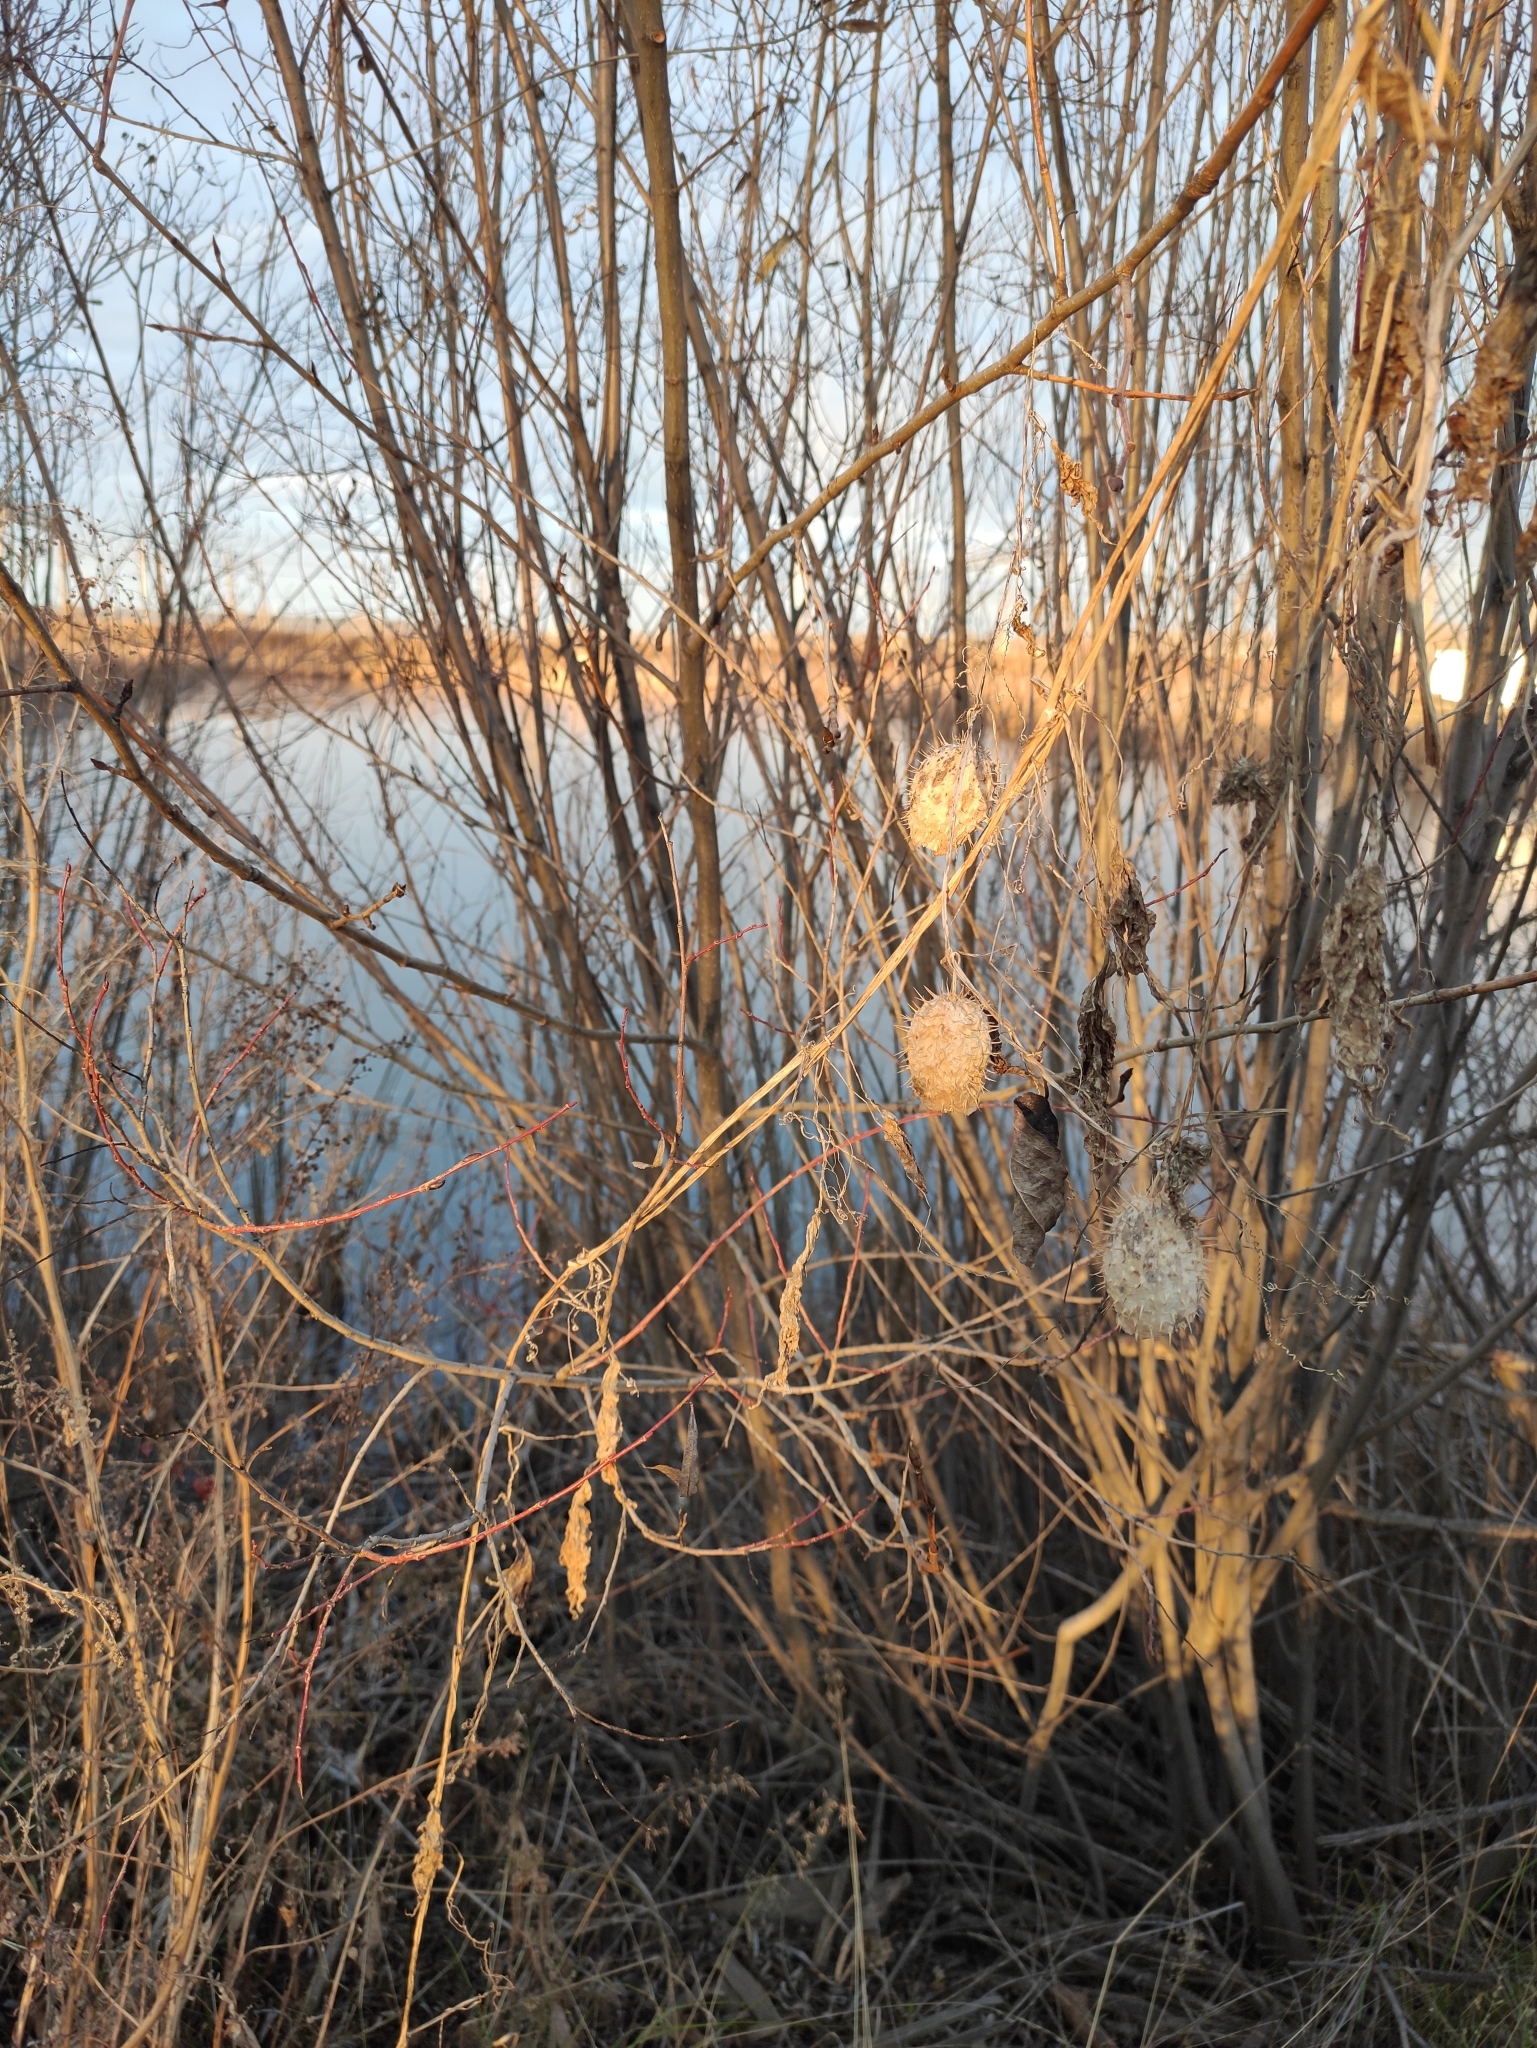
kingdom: Plantae
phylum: Tracheophyta
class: Magnoliopsida
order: Cucurbitales
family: Cucurbitaceae
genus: Echinocystis
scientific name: Echinocystis lobata
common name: Wild cucumber
